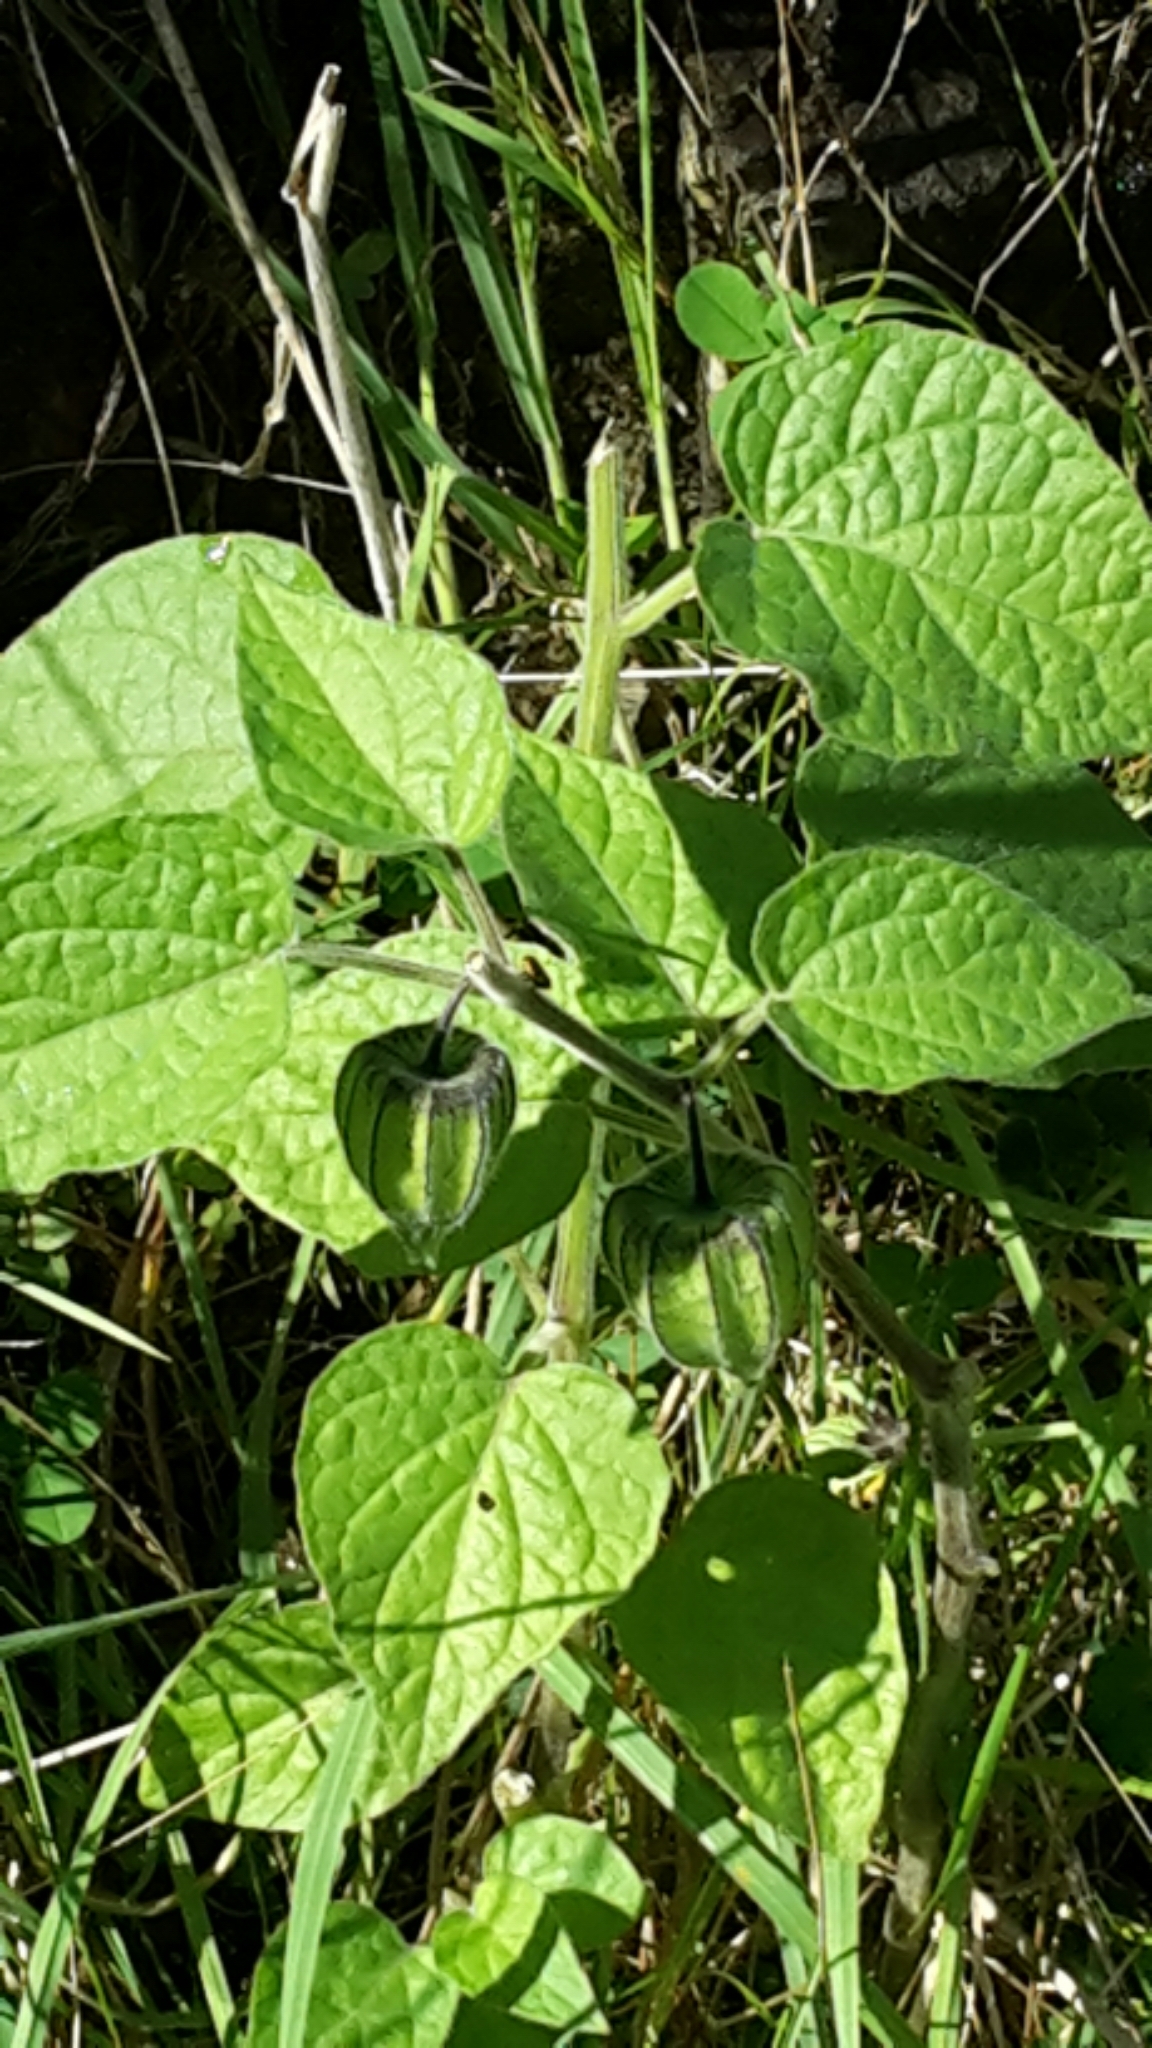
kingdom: Plantae
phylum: Tracheophyta
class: Magnoliopsida
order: Solanales
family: Solanaceae
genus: Physalis
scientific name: Physalis peruviana
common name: Cape-gooseberry
